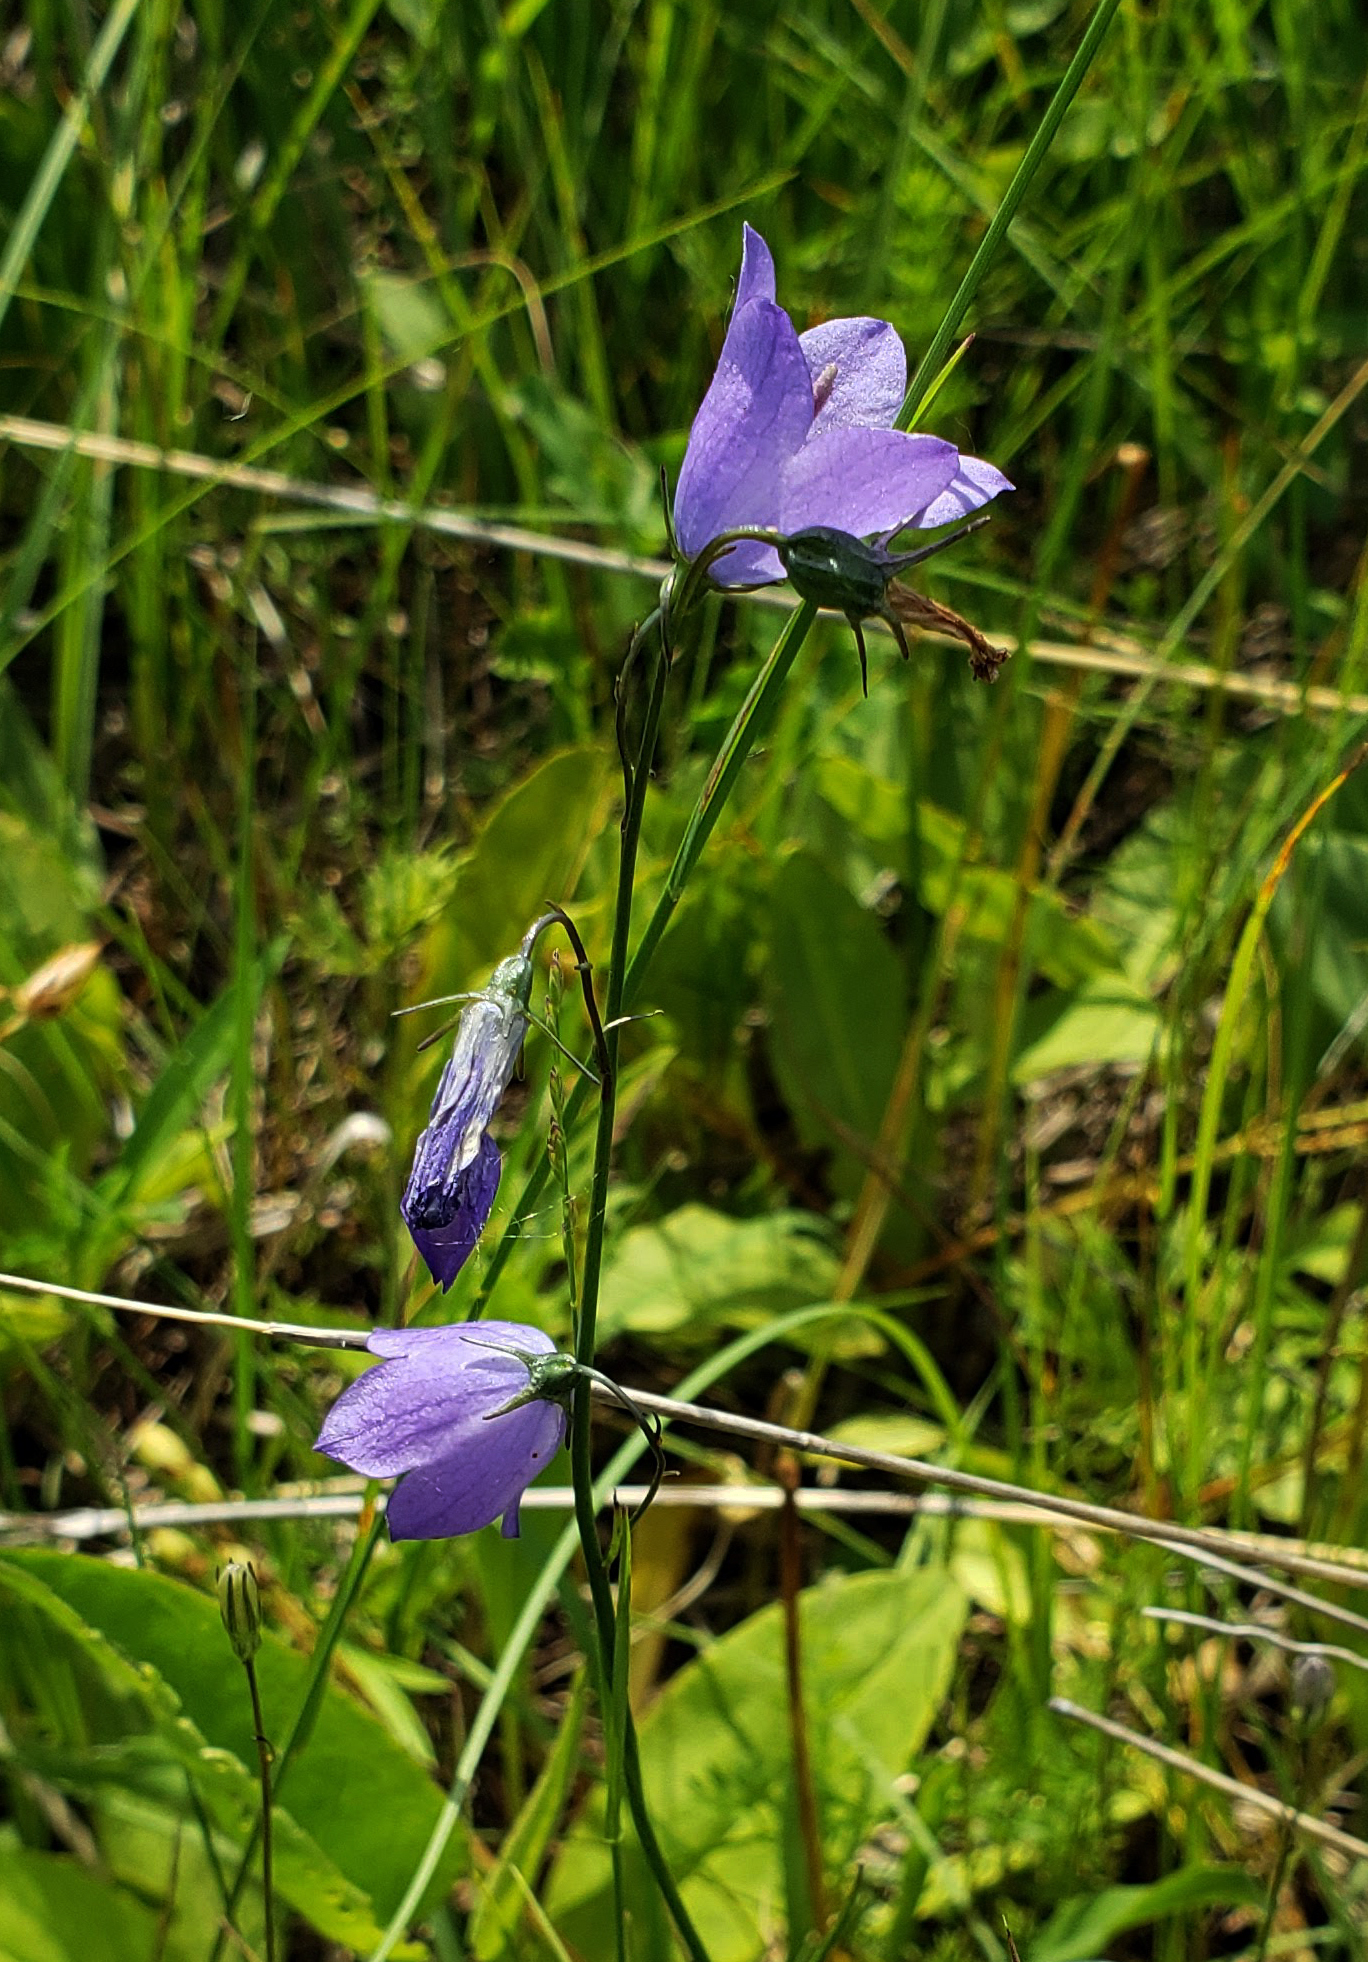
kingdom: Plantae
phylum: Tracheophyta
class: Magnoliopsida
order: Asterales
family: Campanulaceae
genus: Campanula
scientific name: Campanula intercedens
